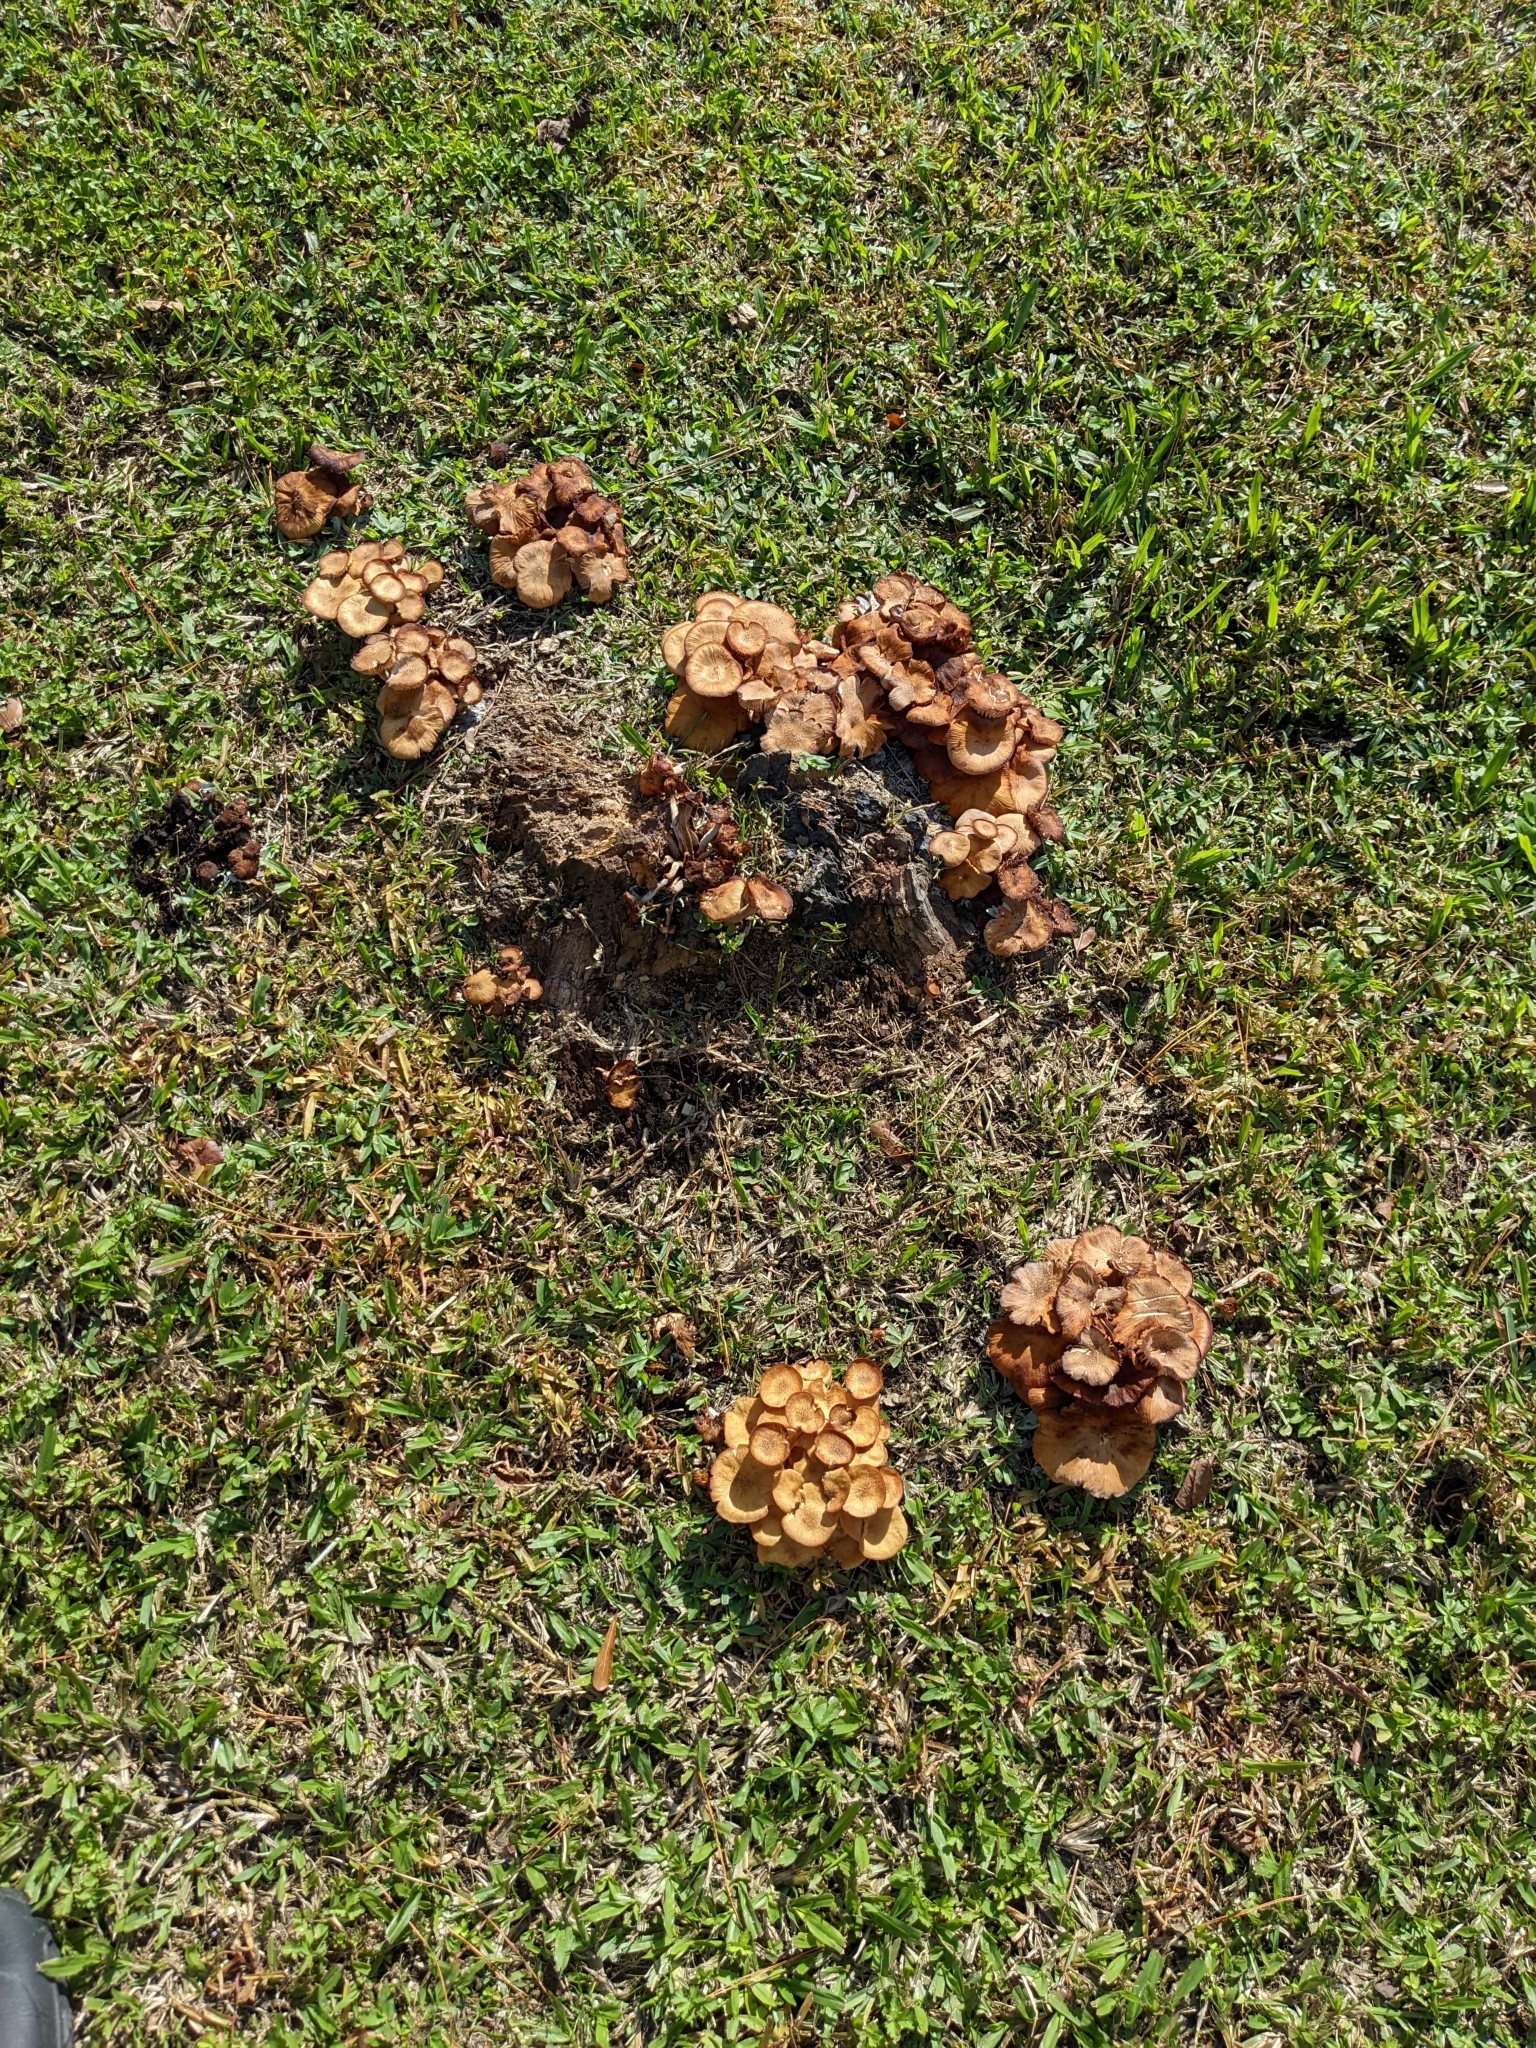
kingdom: Fungi
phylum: Basidiomycota
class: Agaricomycetes
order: Agaricales
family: Physalacriaceae
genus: Desarmillaria
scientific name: Desarmillaria caespitosa
